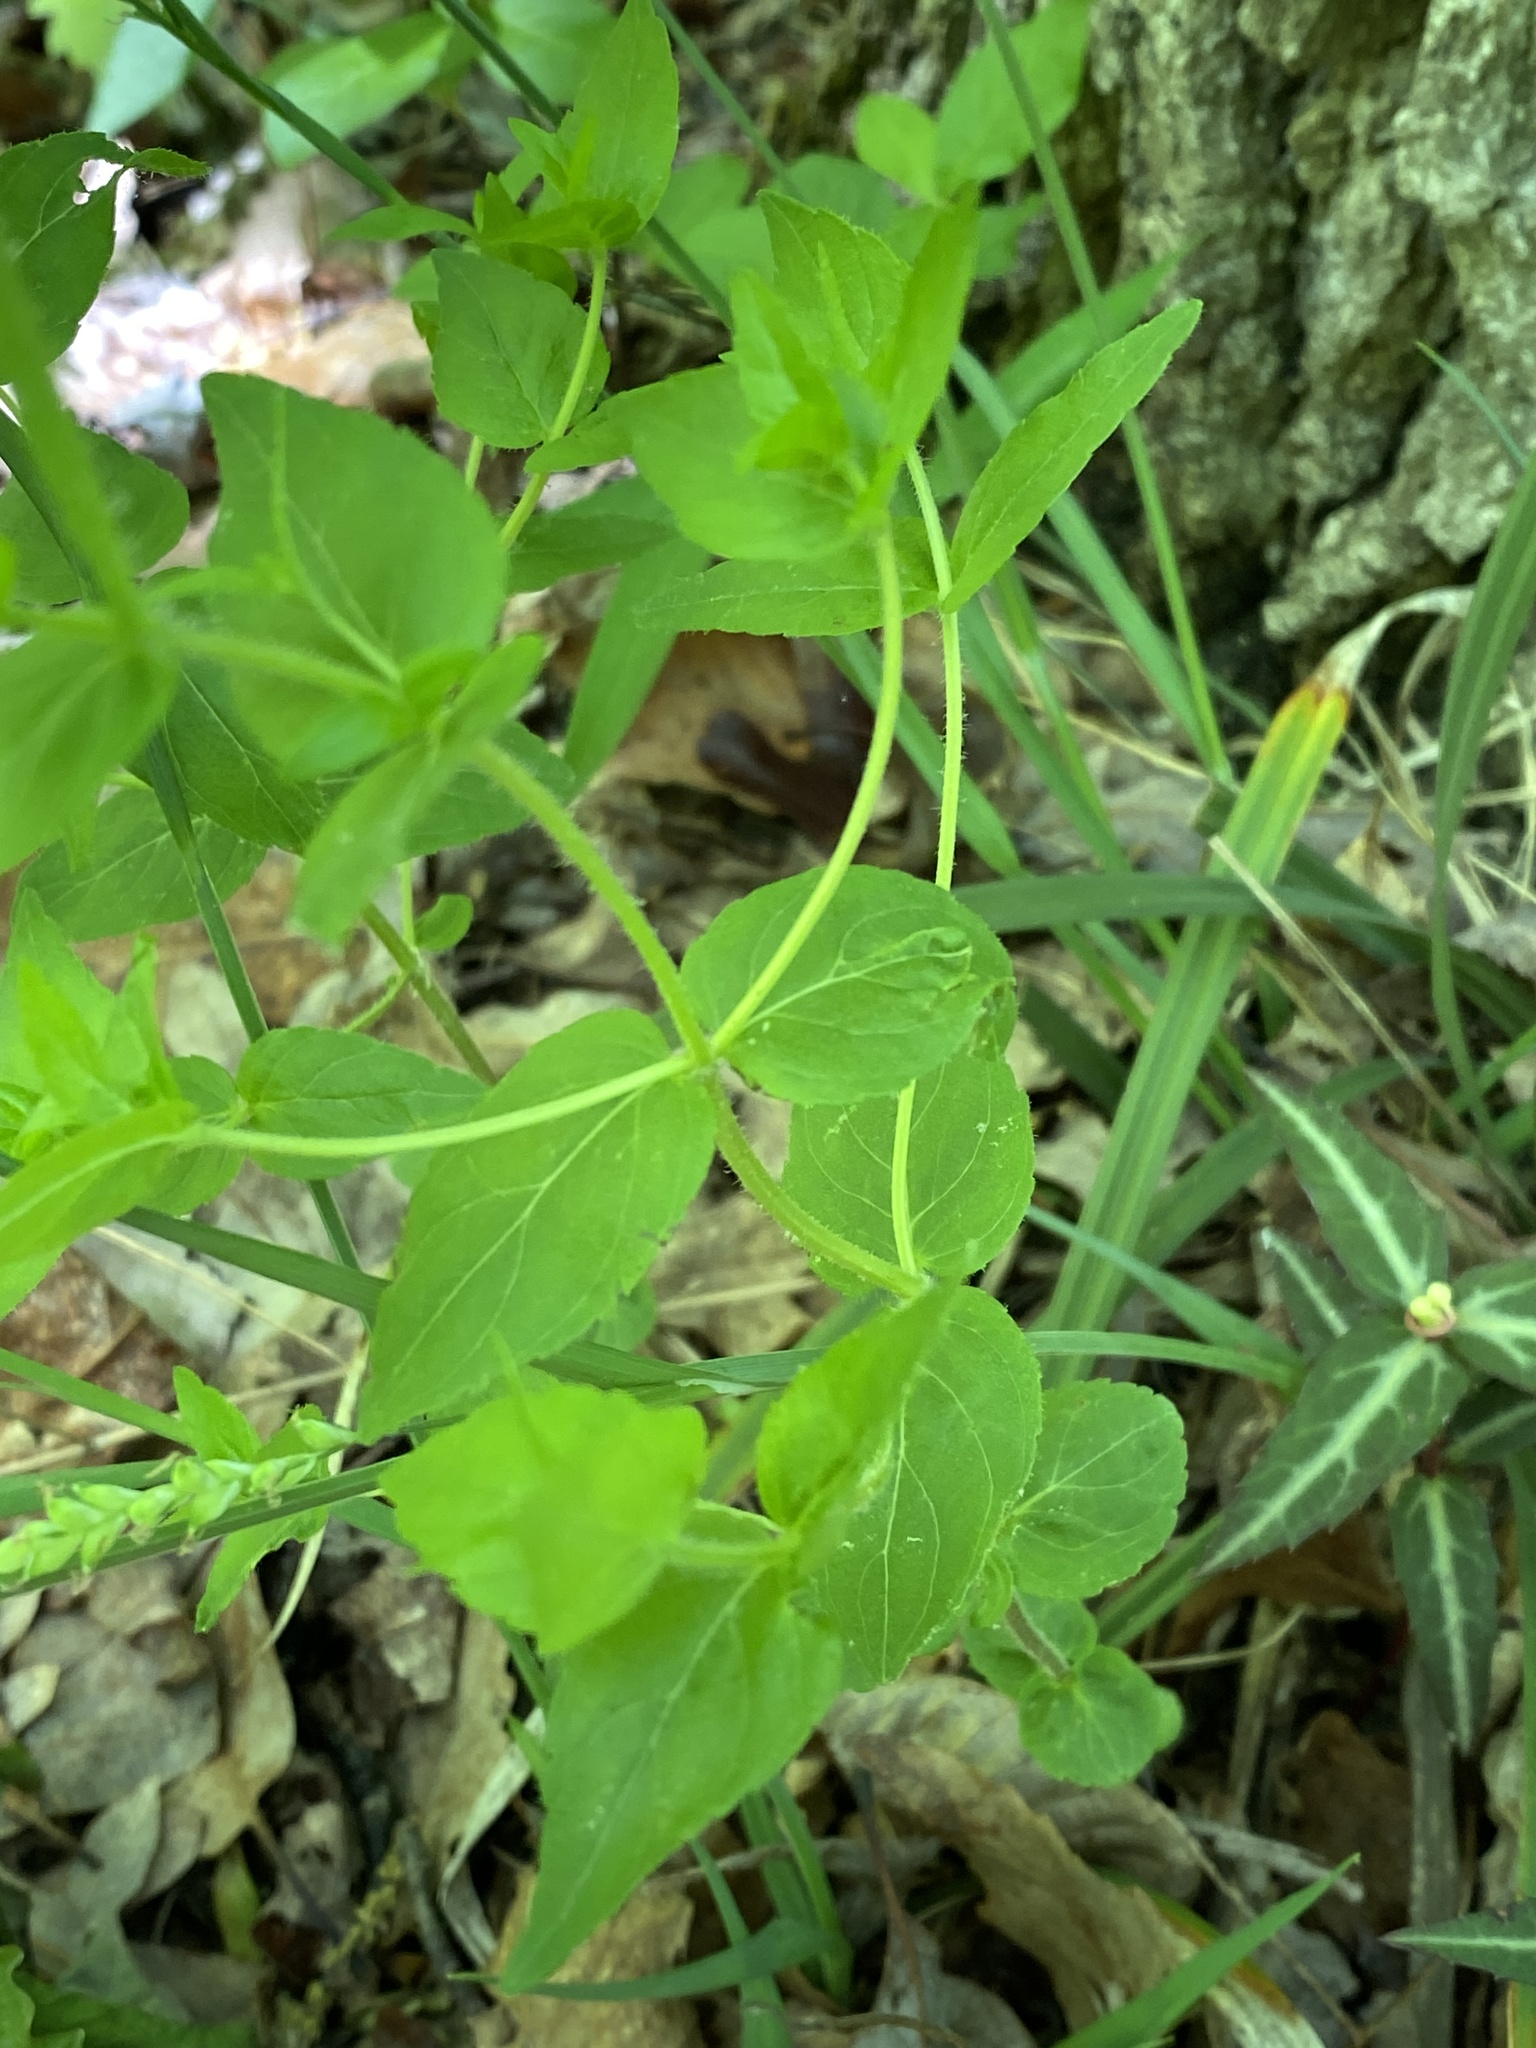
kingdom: Plantae
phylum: Tracheophyta
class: Magnoliopsida
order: Lamiales
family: Lamiaceae
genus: Cunila
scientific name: Cunila origanoides
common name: American dittany
